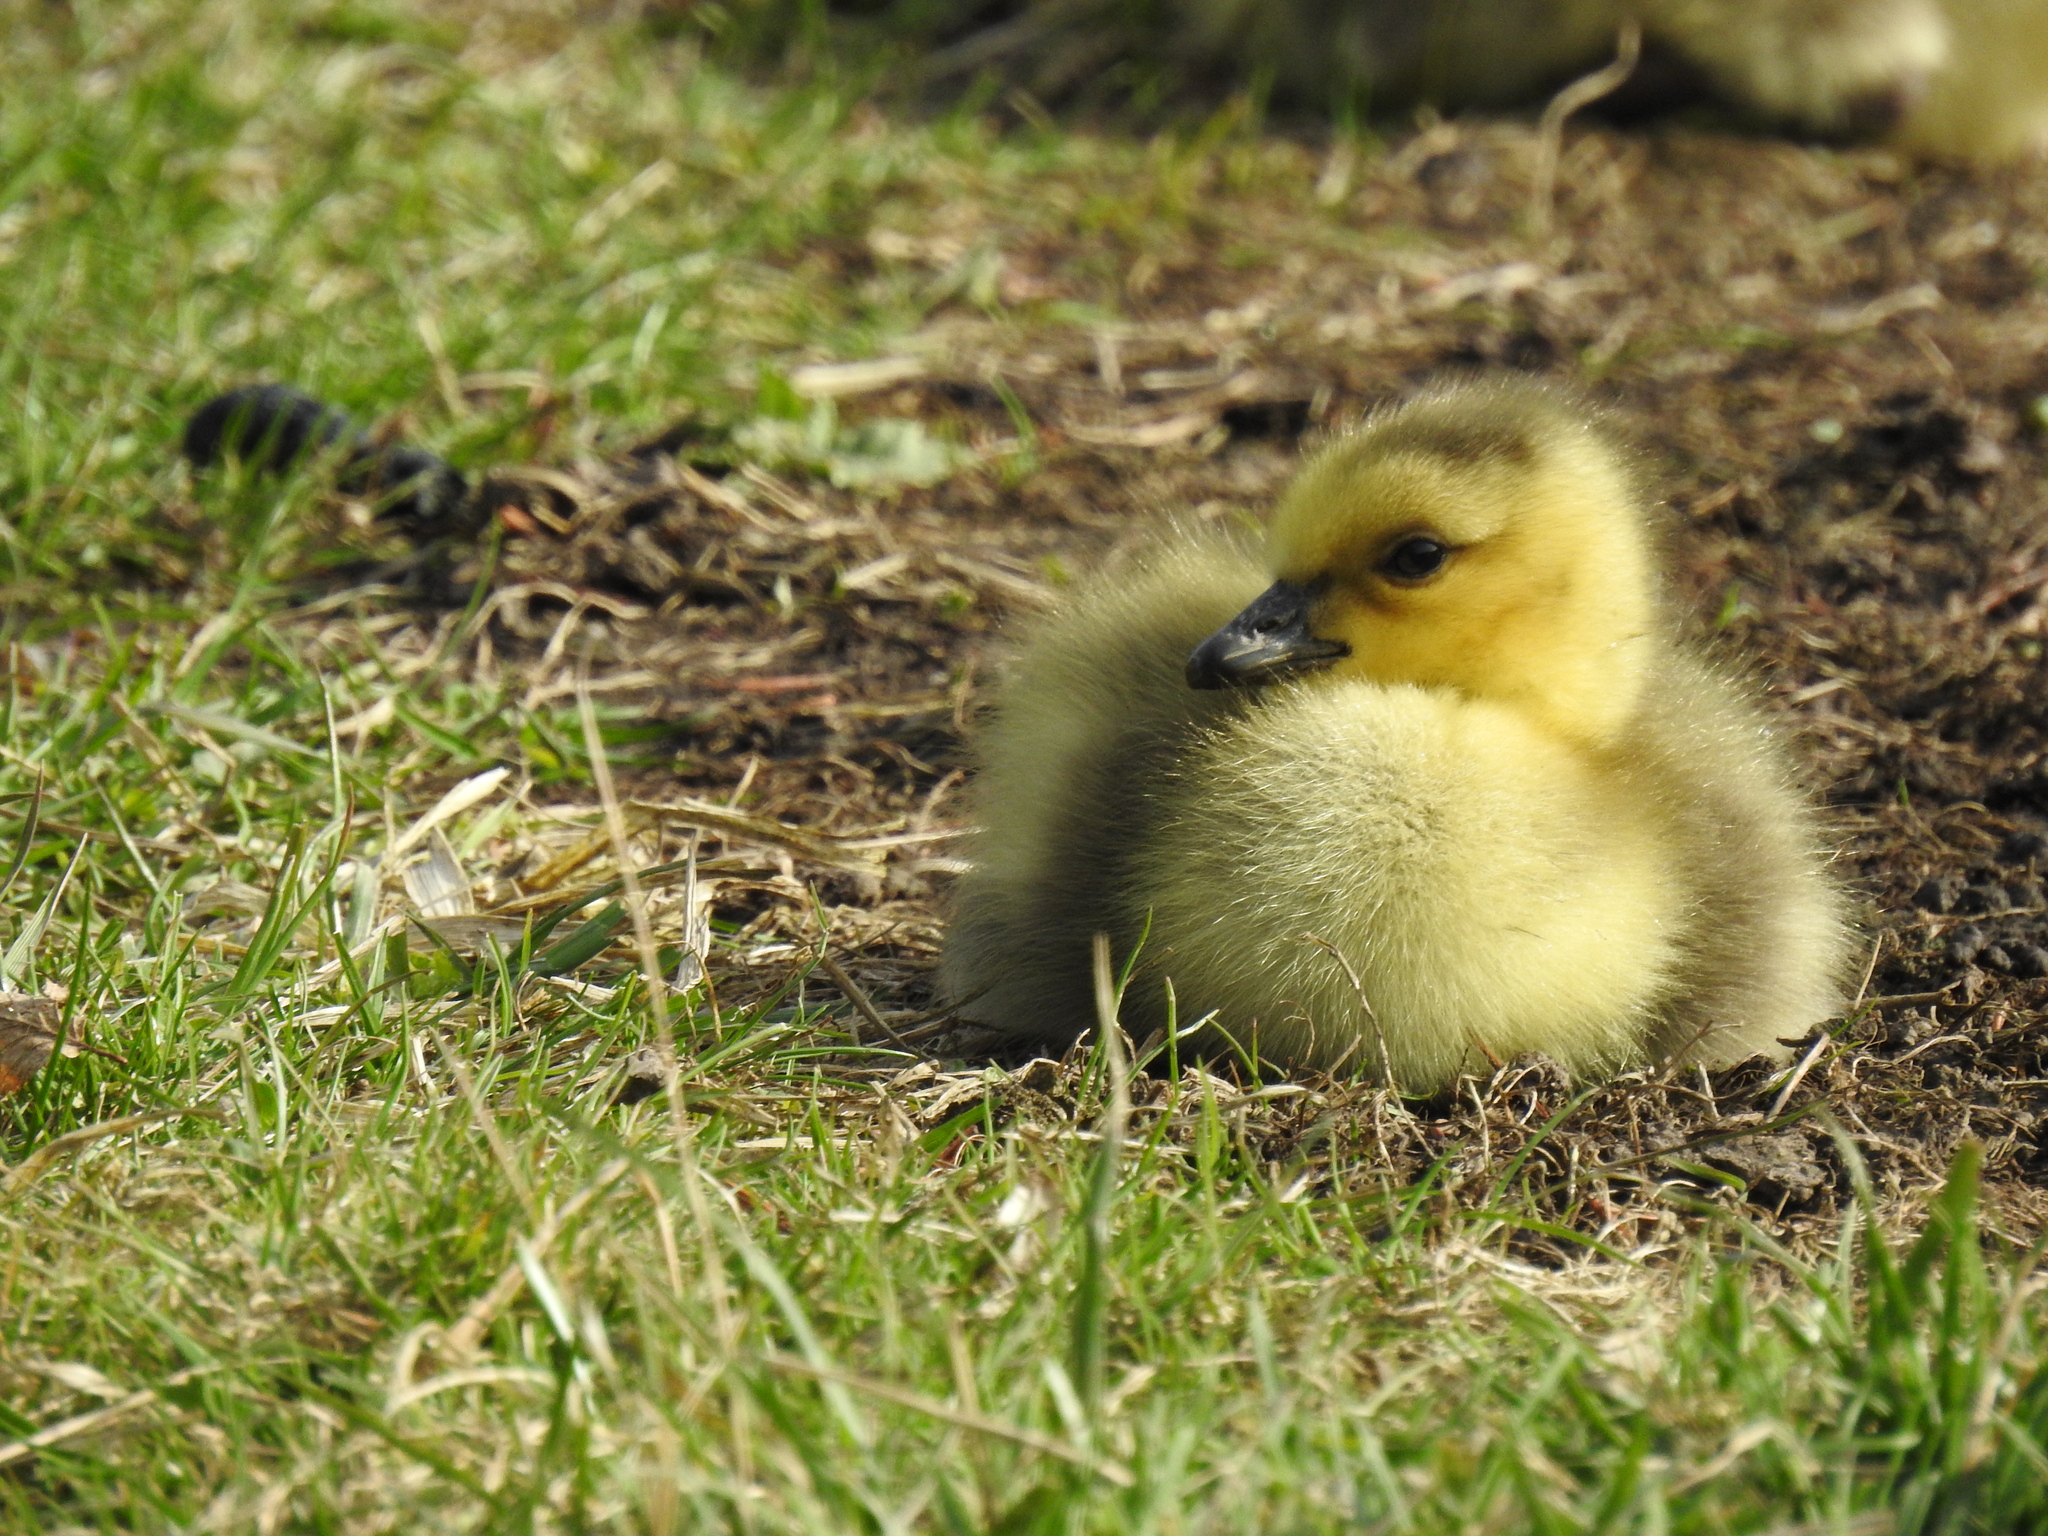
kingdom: Animalia
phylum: Chordata
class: Aves
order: Anseriformes
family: Anatidae
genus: Branta
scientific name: Branta canadensis
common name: Canada goose
